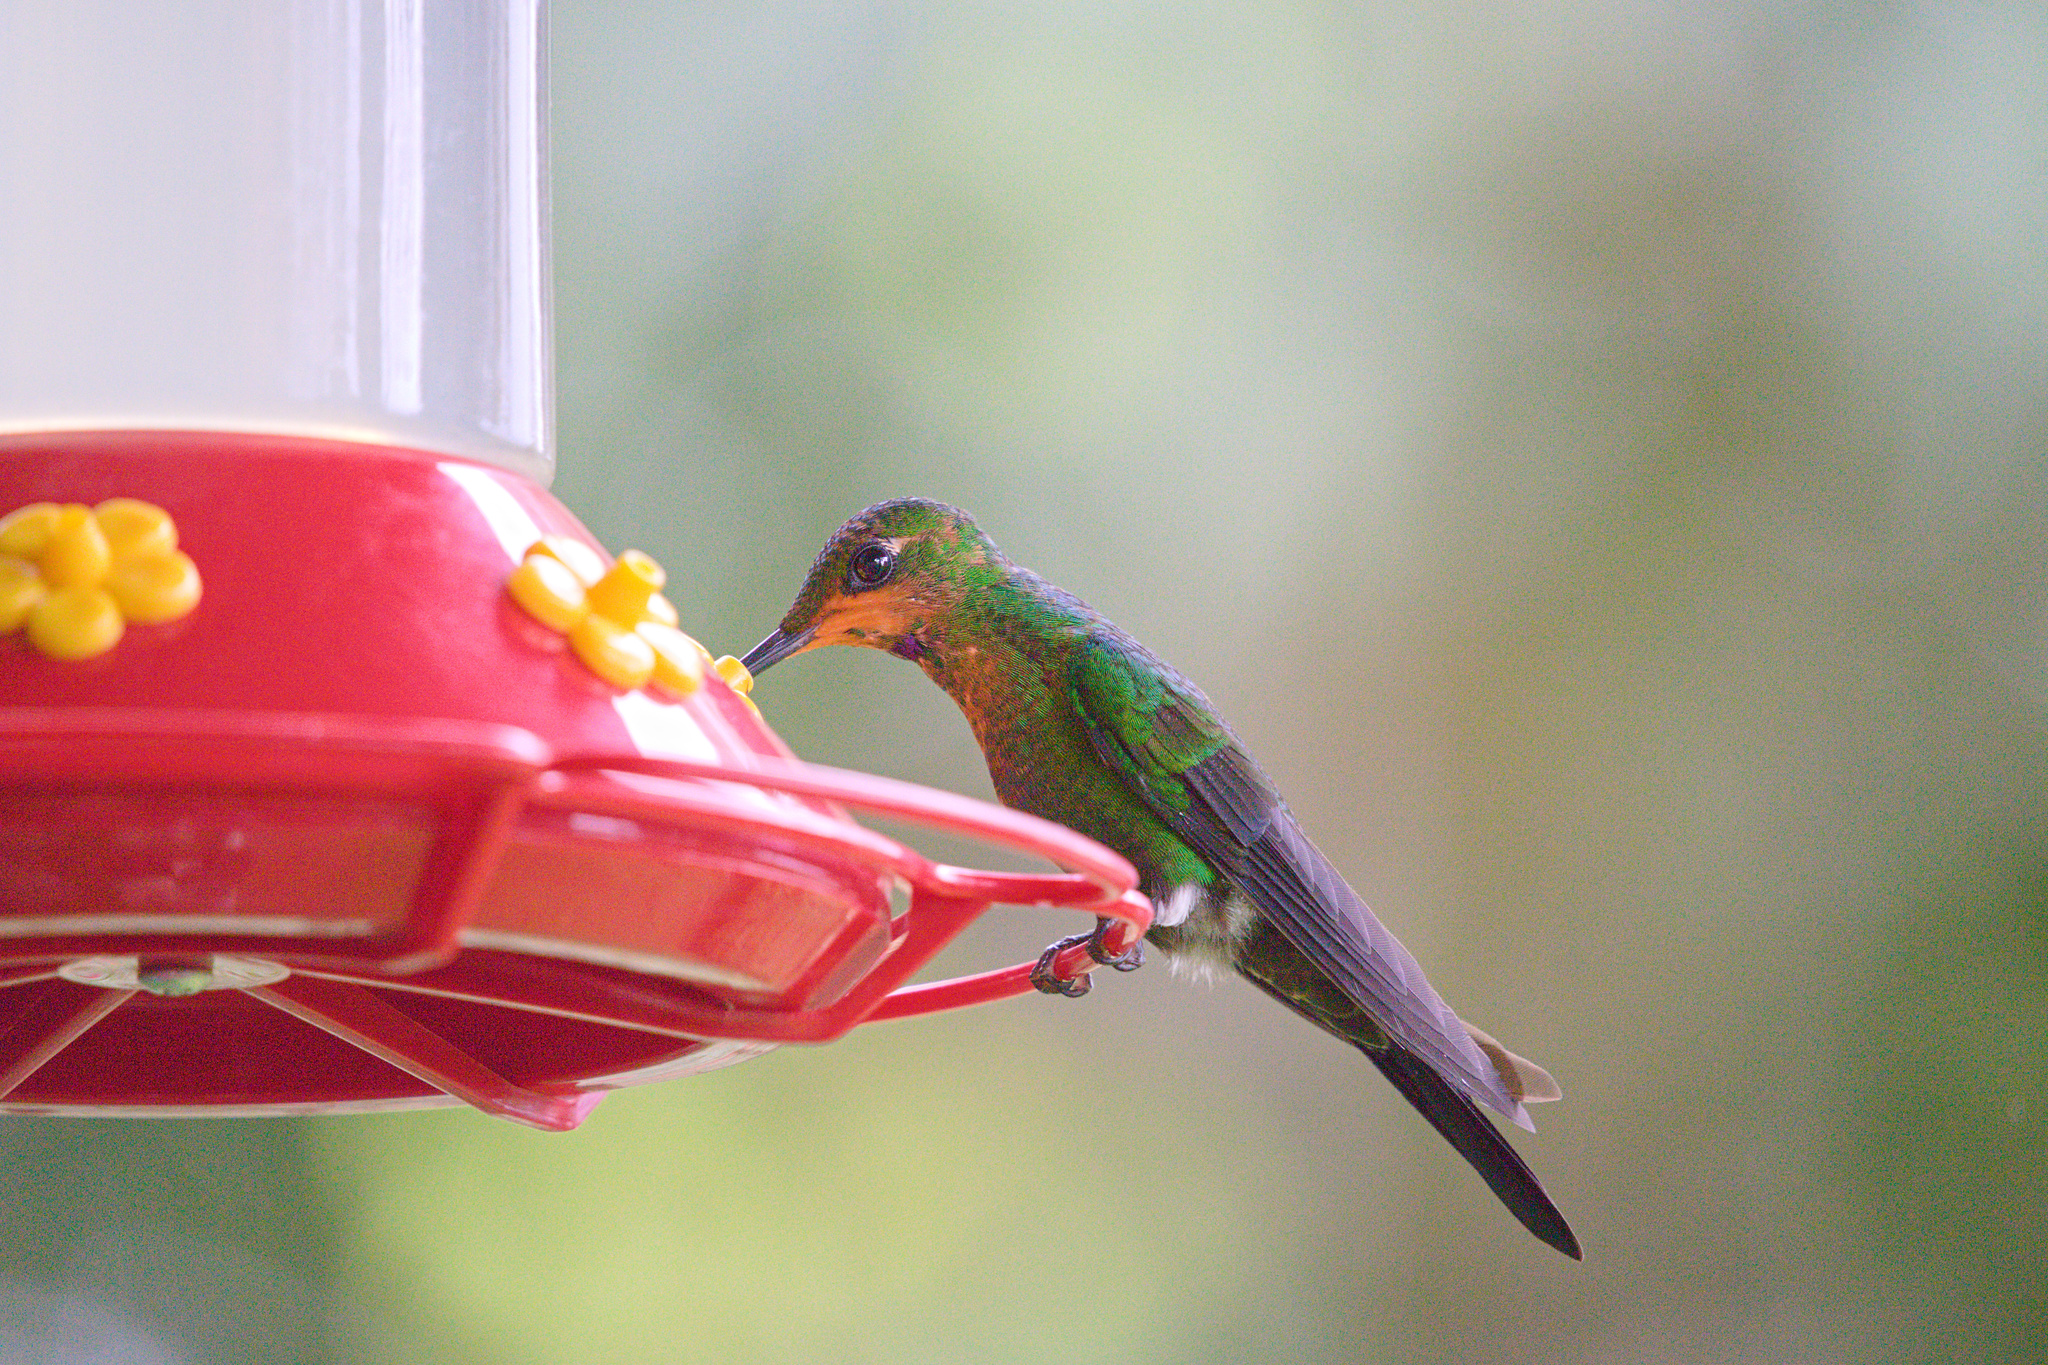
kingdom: Animalia
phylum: Chordata
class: Aves
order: Apodiformes
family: Trochilidae
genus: Heliodoxa
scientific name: Heliodoxa jacula
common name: Green-crowned brilliant
